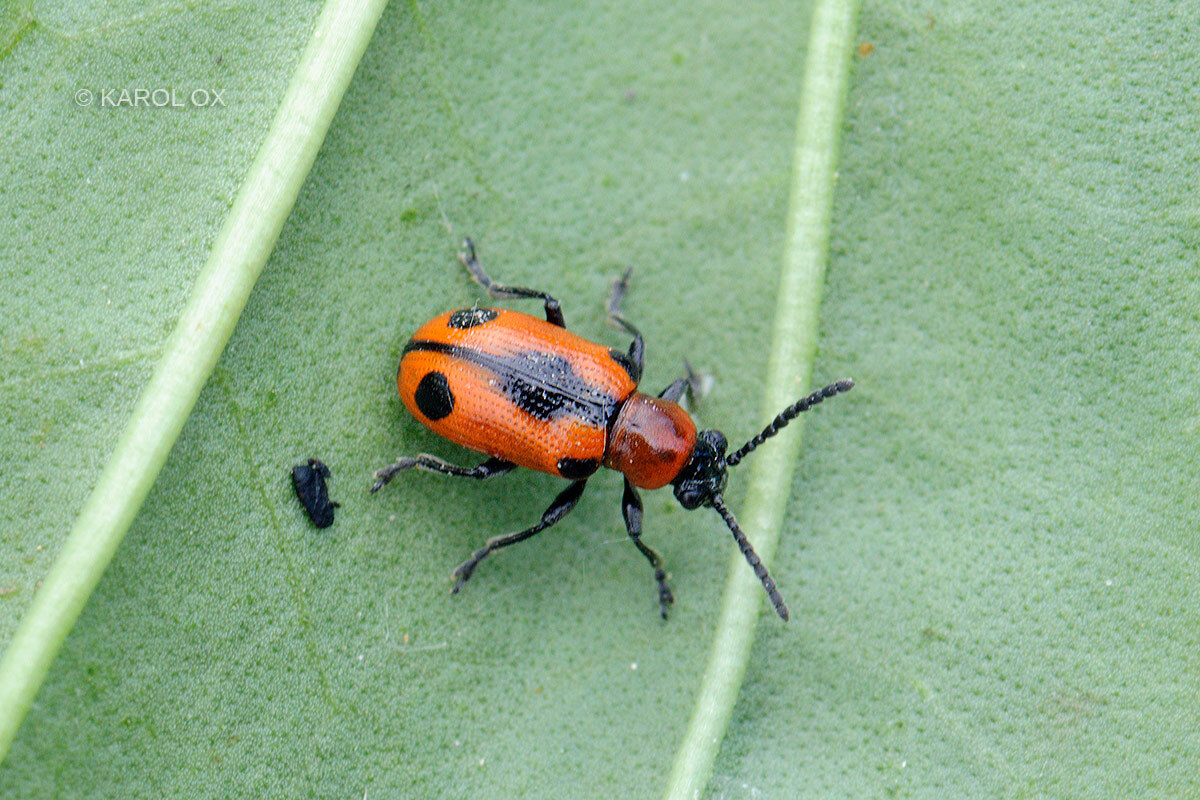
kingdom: Animalia
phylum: Arthropoda
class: Insecta
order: Coleoptera
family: Chrysomelidae
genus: Crioceris
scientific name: Crioceris quinquepunctata
